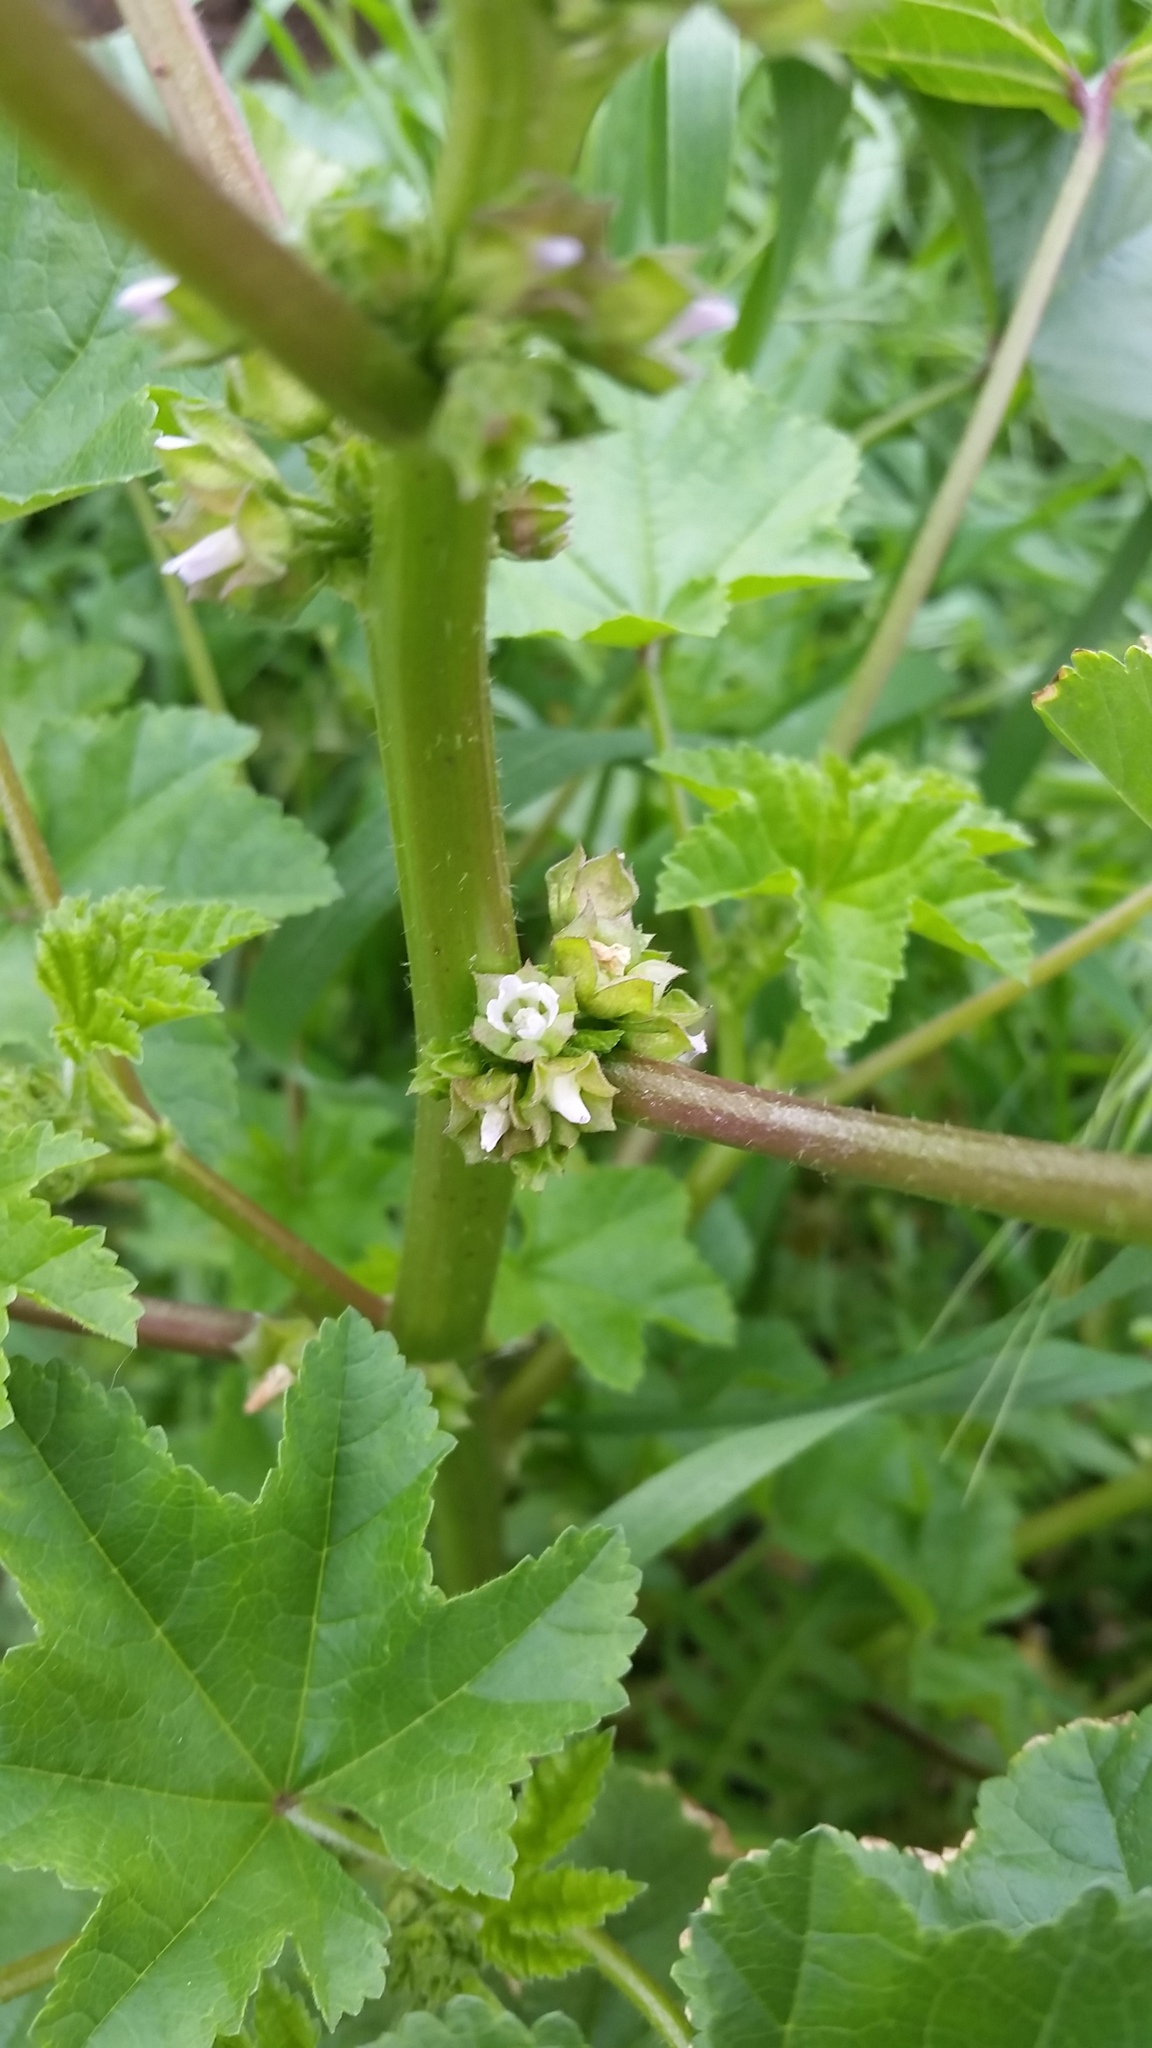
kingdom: Plantae
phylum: Tracheophyta
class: Magnoliopsida
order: Malvales
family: Malvaceae
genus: Malva
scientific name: Malva parviflora
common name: Least mallow
